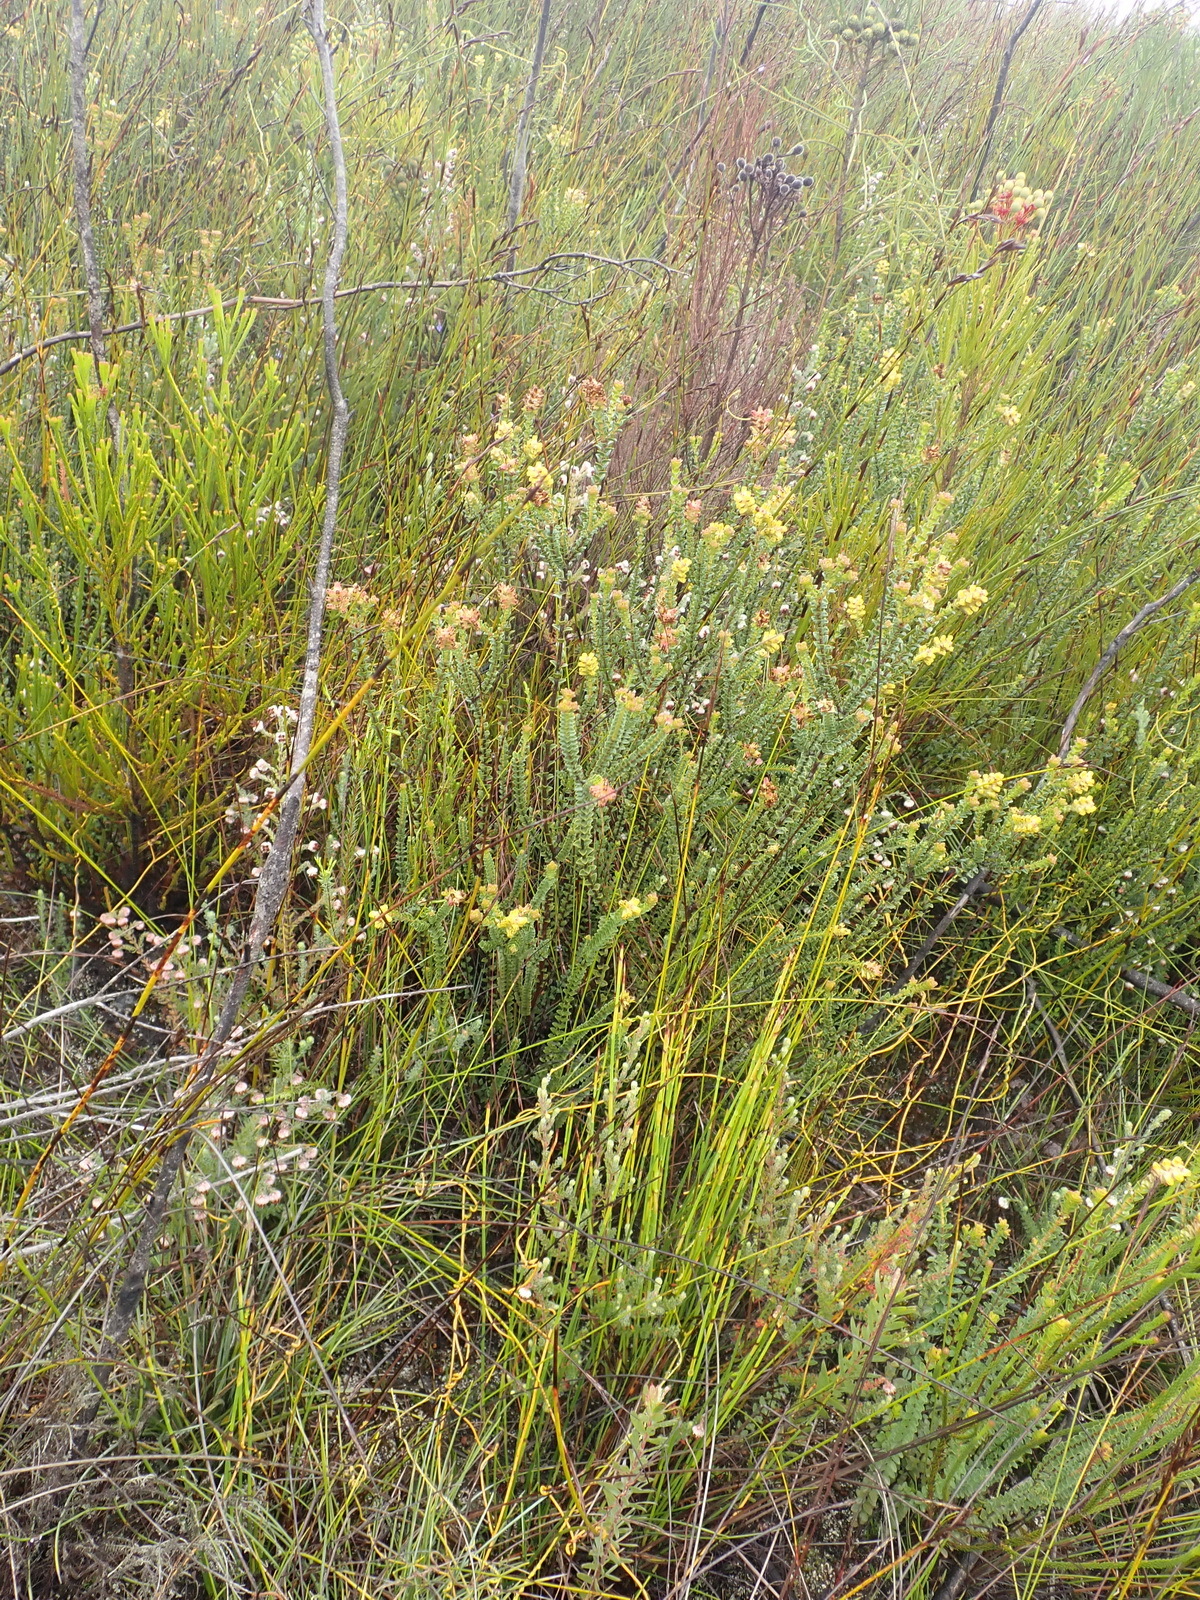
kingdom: Plantae
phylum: Tracheophyta
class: Magnoliopsida
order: Myrtales
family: Penaeaceae
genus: Penaea
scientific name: Penaea cneorum
